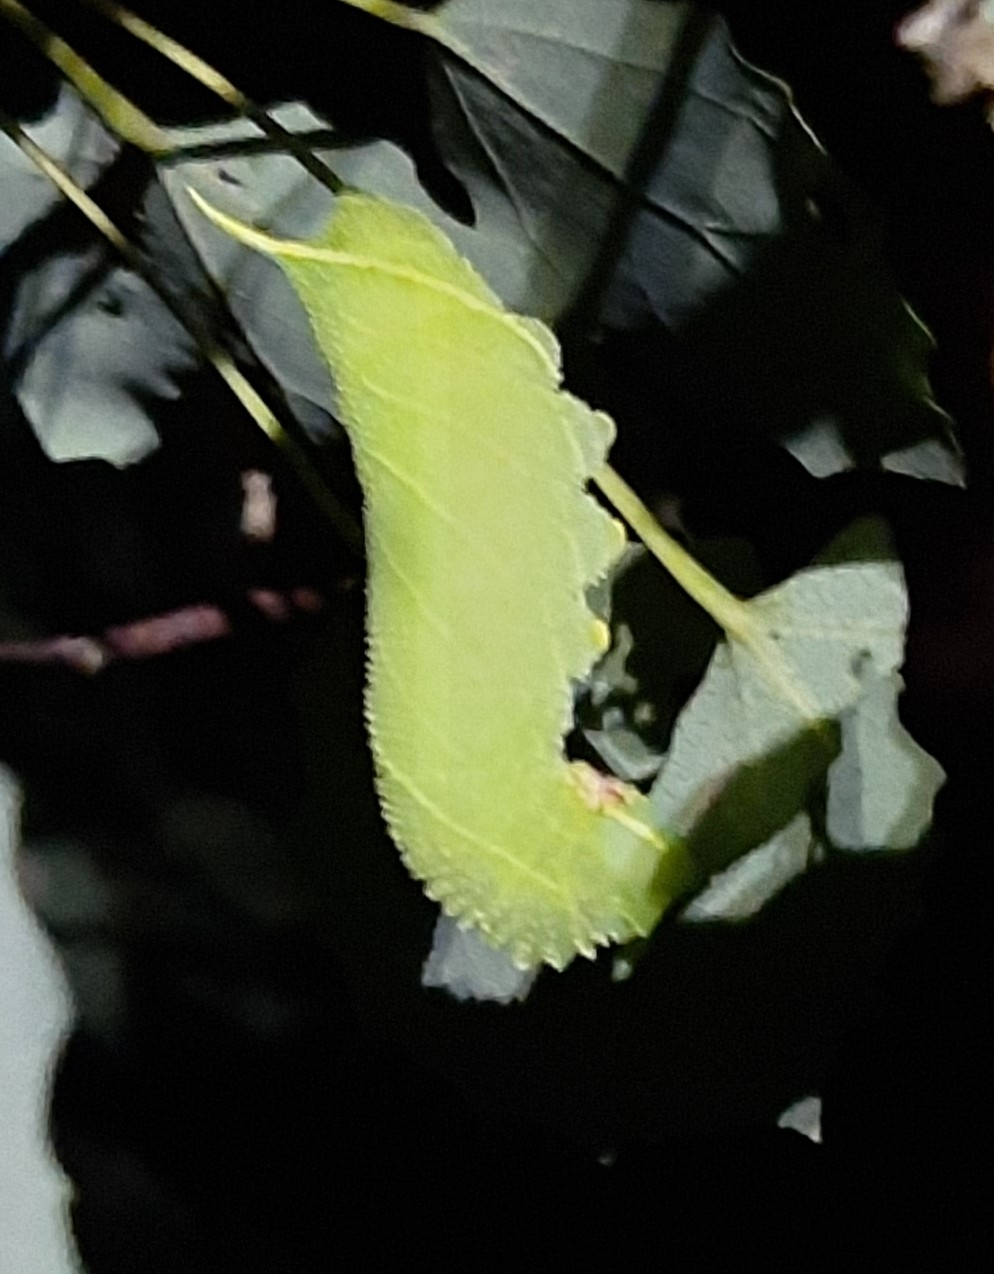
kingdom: Animalia
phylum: Arthropoda
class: Insecta
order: Lepidoptera
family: Sphingidae
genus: Laothoe
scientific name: Laothoe populi
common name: Poplar hawk-moth
